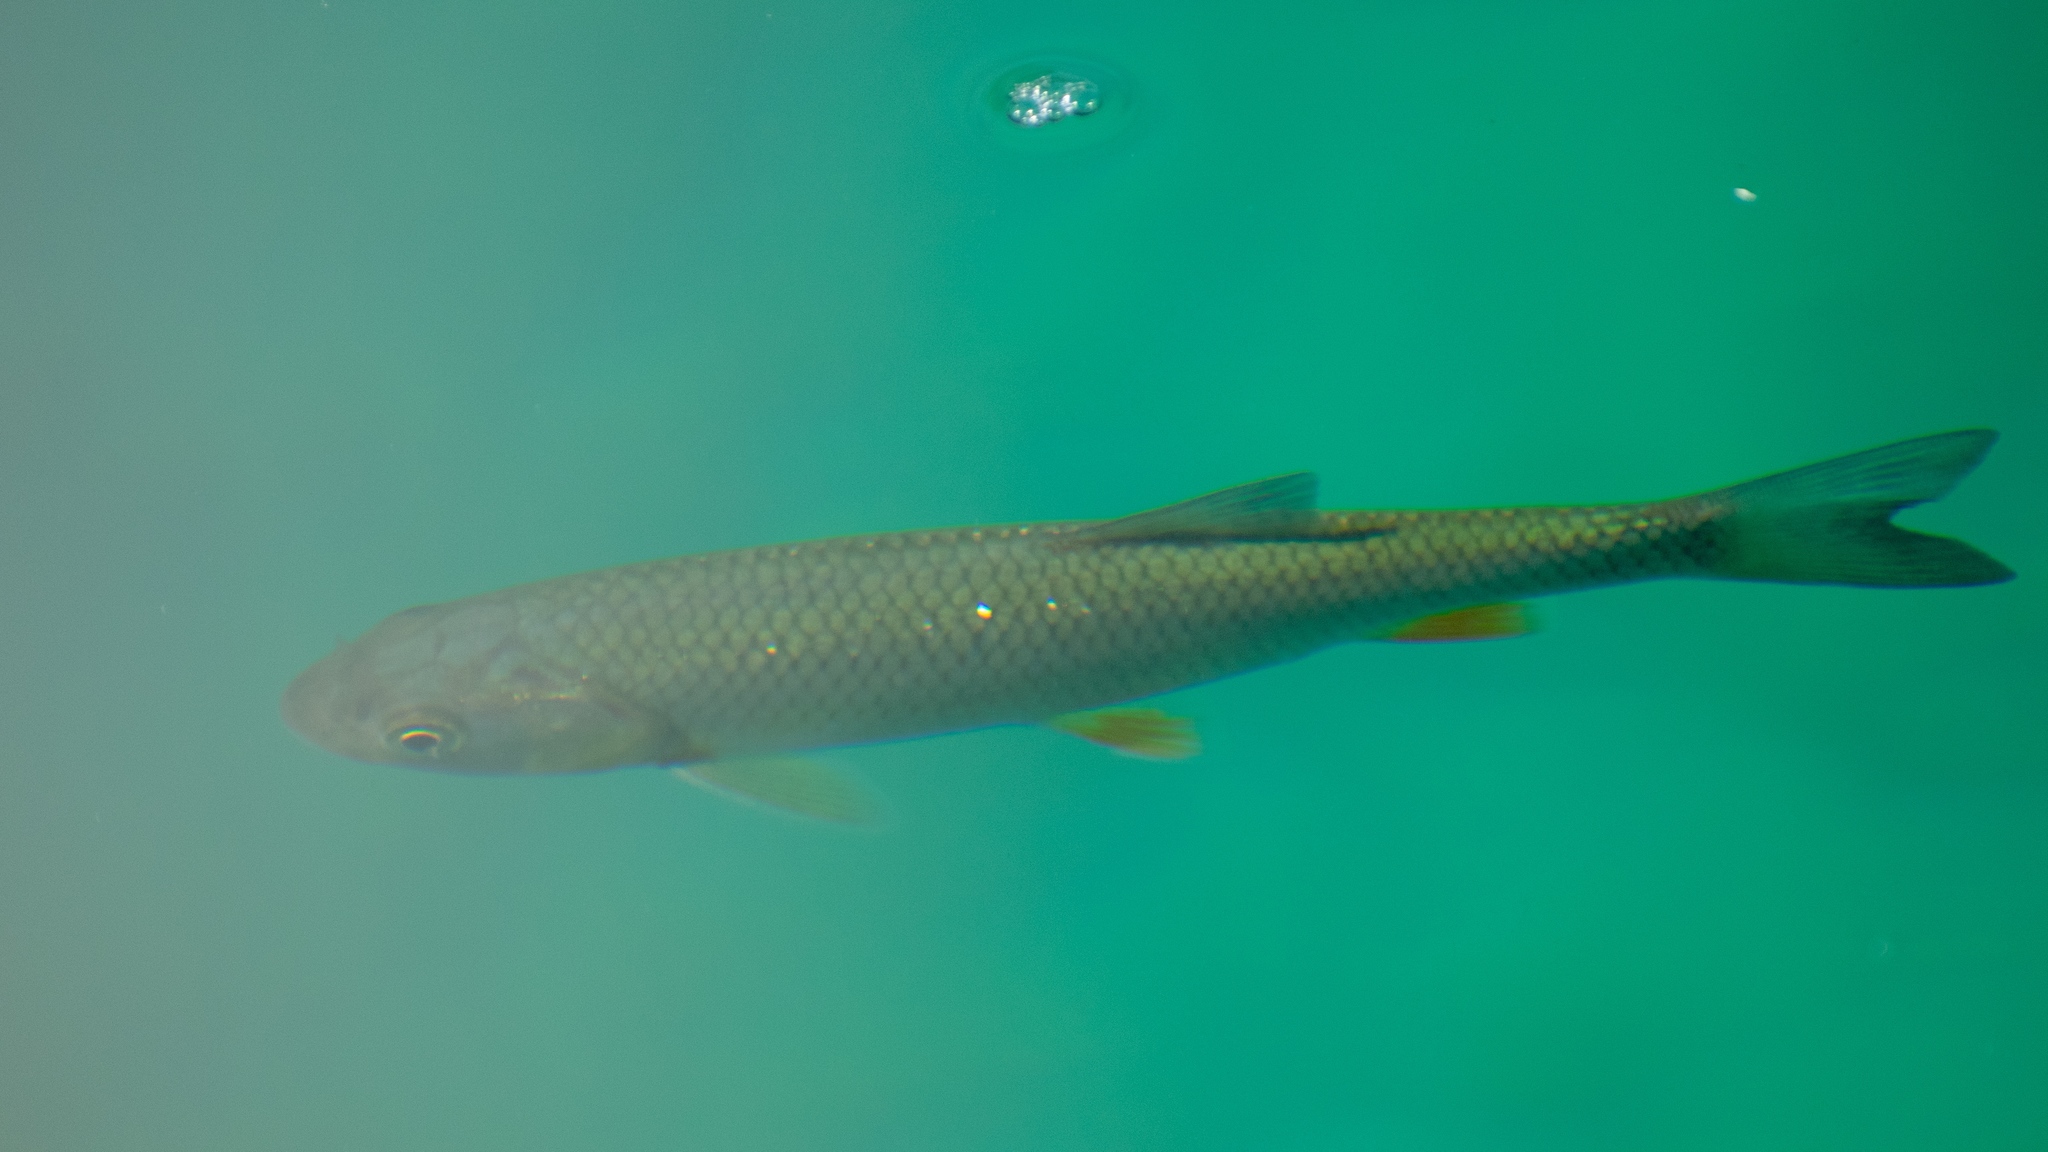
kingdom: Animalia
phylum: Chordata
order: Cypriniformes
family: Cyprinidae
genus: Squalius
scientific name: Squalius cephalus
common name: Chub
